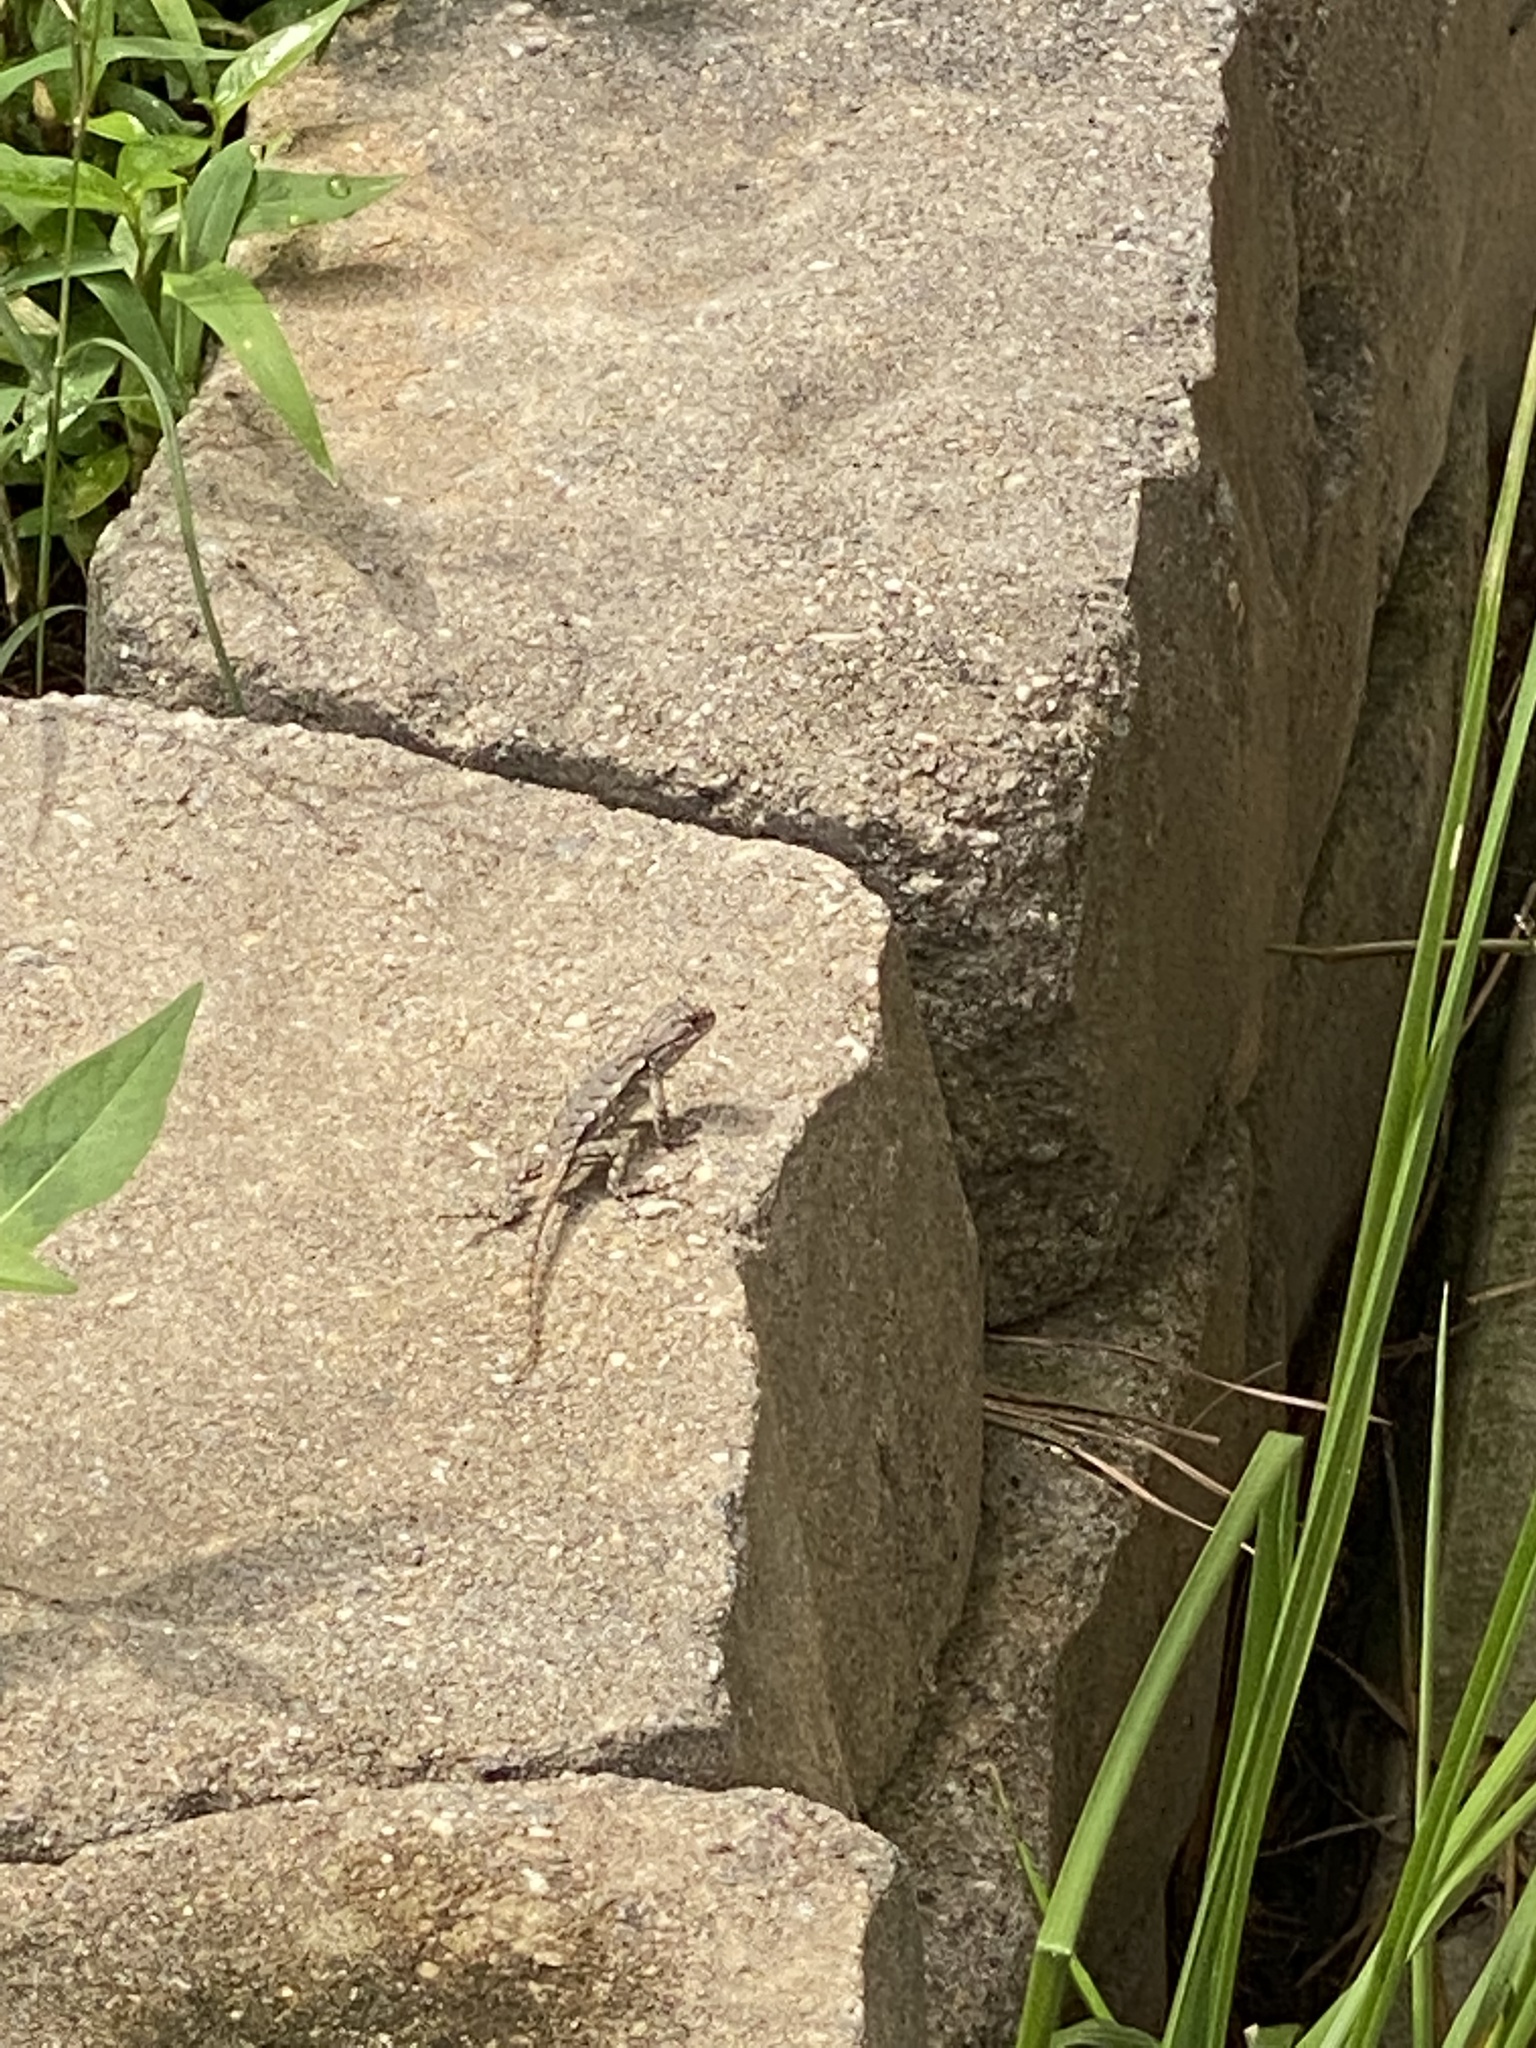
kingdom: Animalia
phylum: Chordata
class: Squamata
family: Phrynosomatidae
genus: Sceloporus
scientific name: Sceloporus undulatus
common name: Eastern fence lizard
